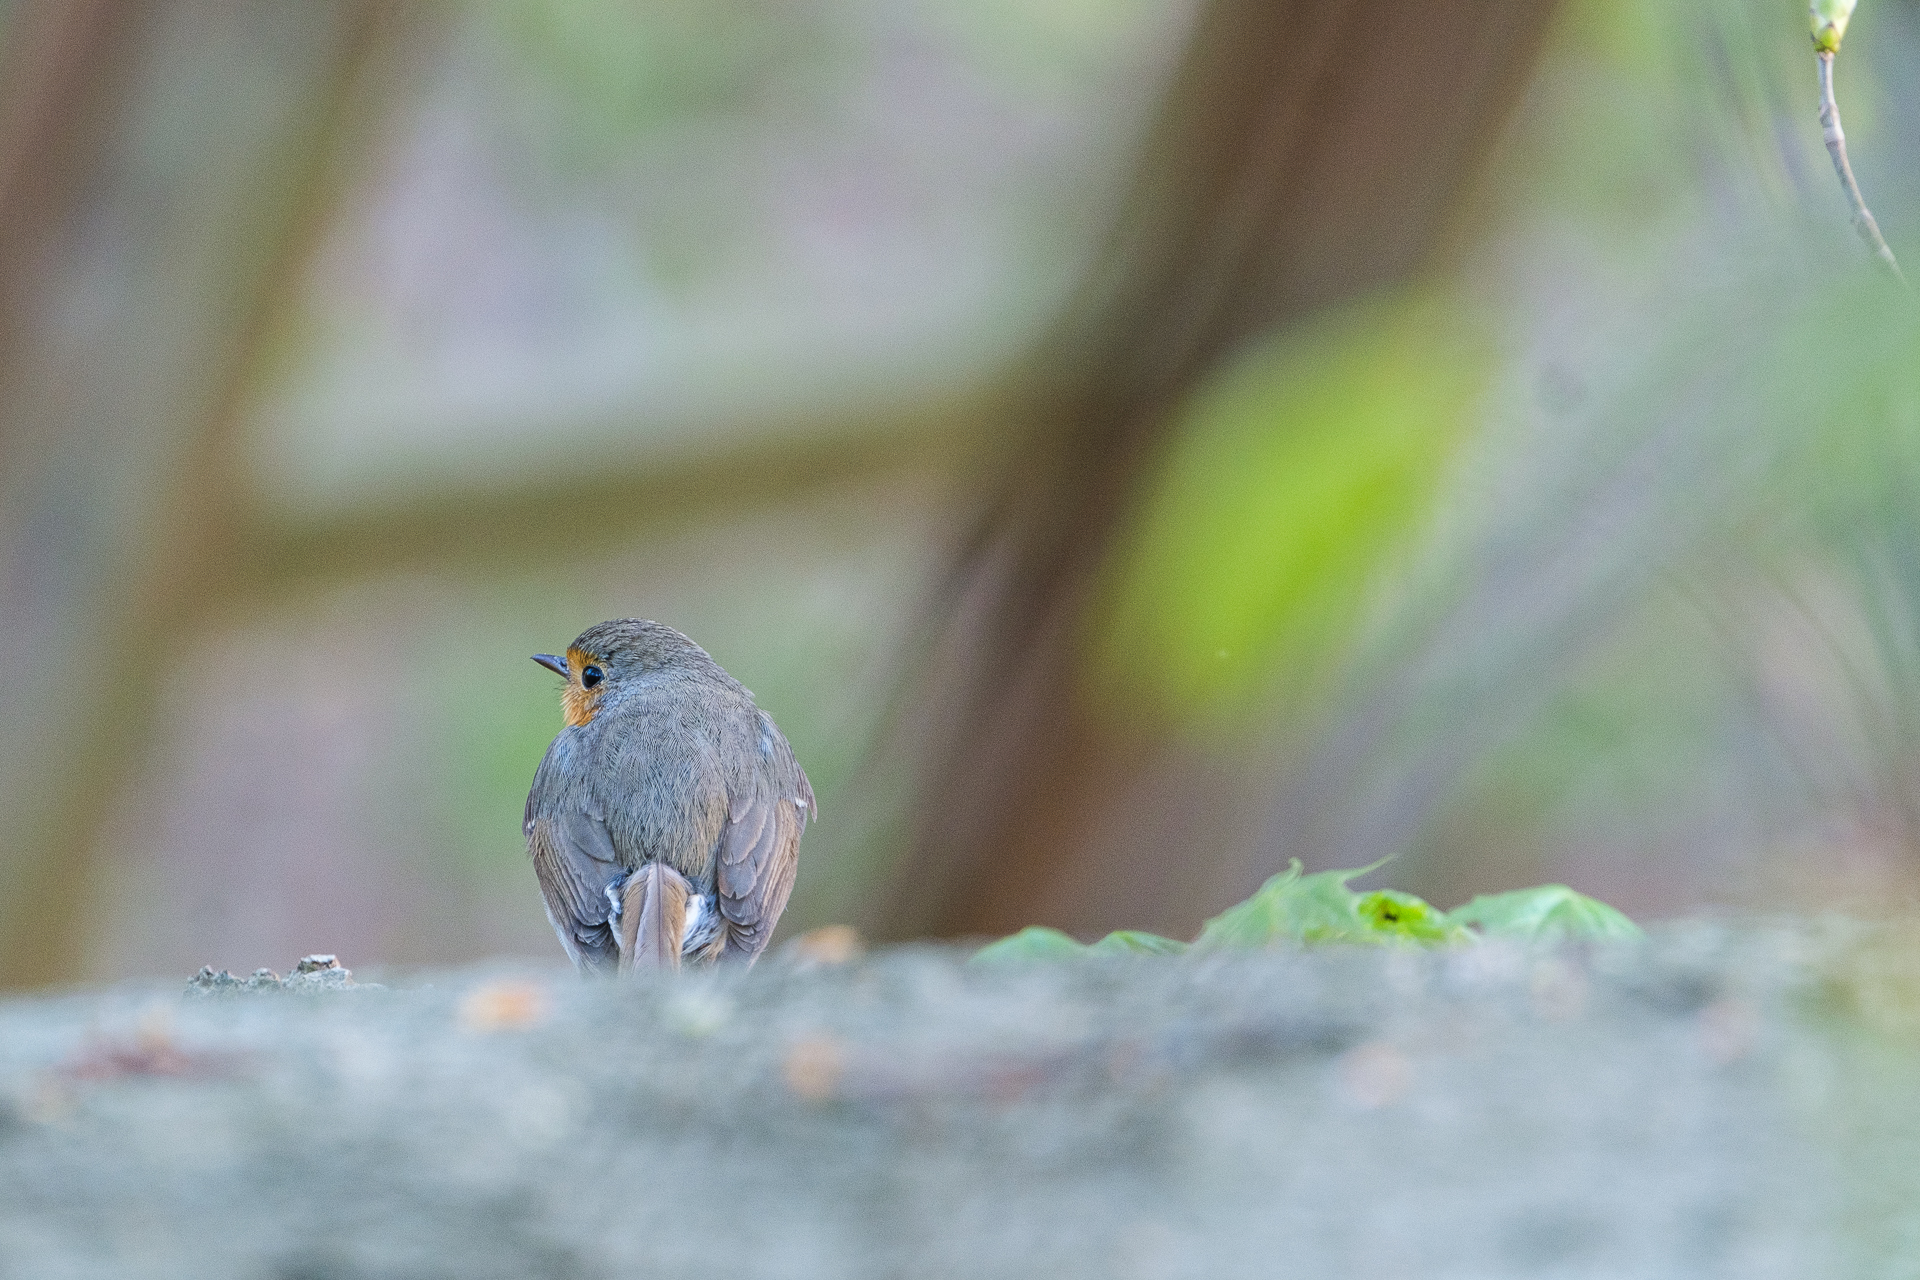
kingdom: Animalia
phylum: Chordata
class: Aves
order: Passeriformes
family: Muscicapidae
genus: Erithacus
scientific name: Erithacus rubecula
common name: European robin
